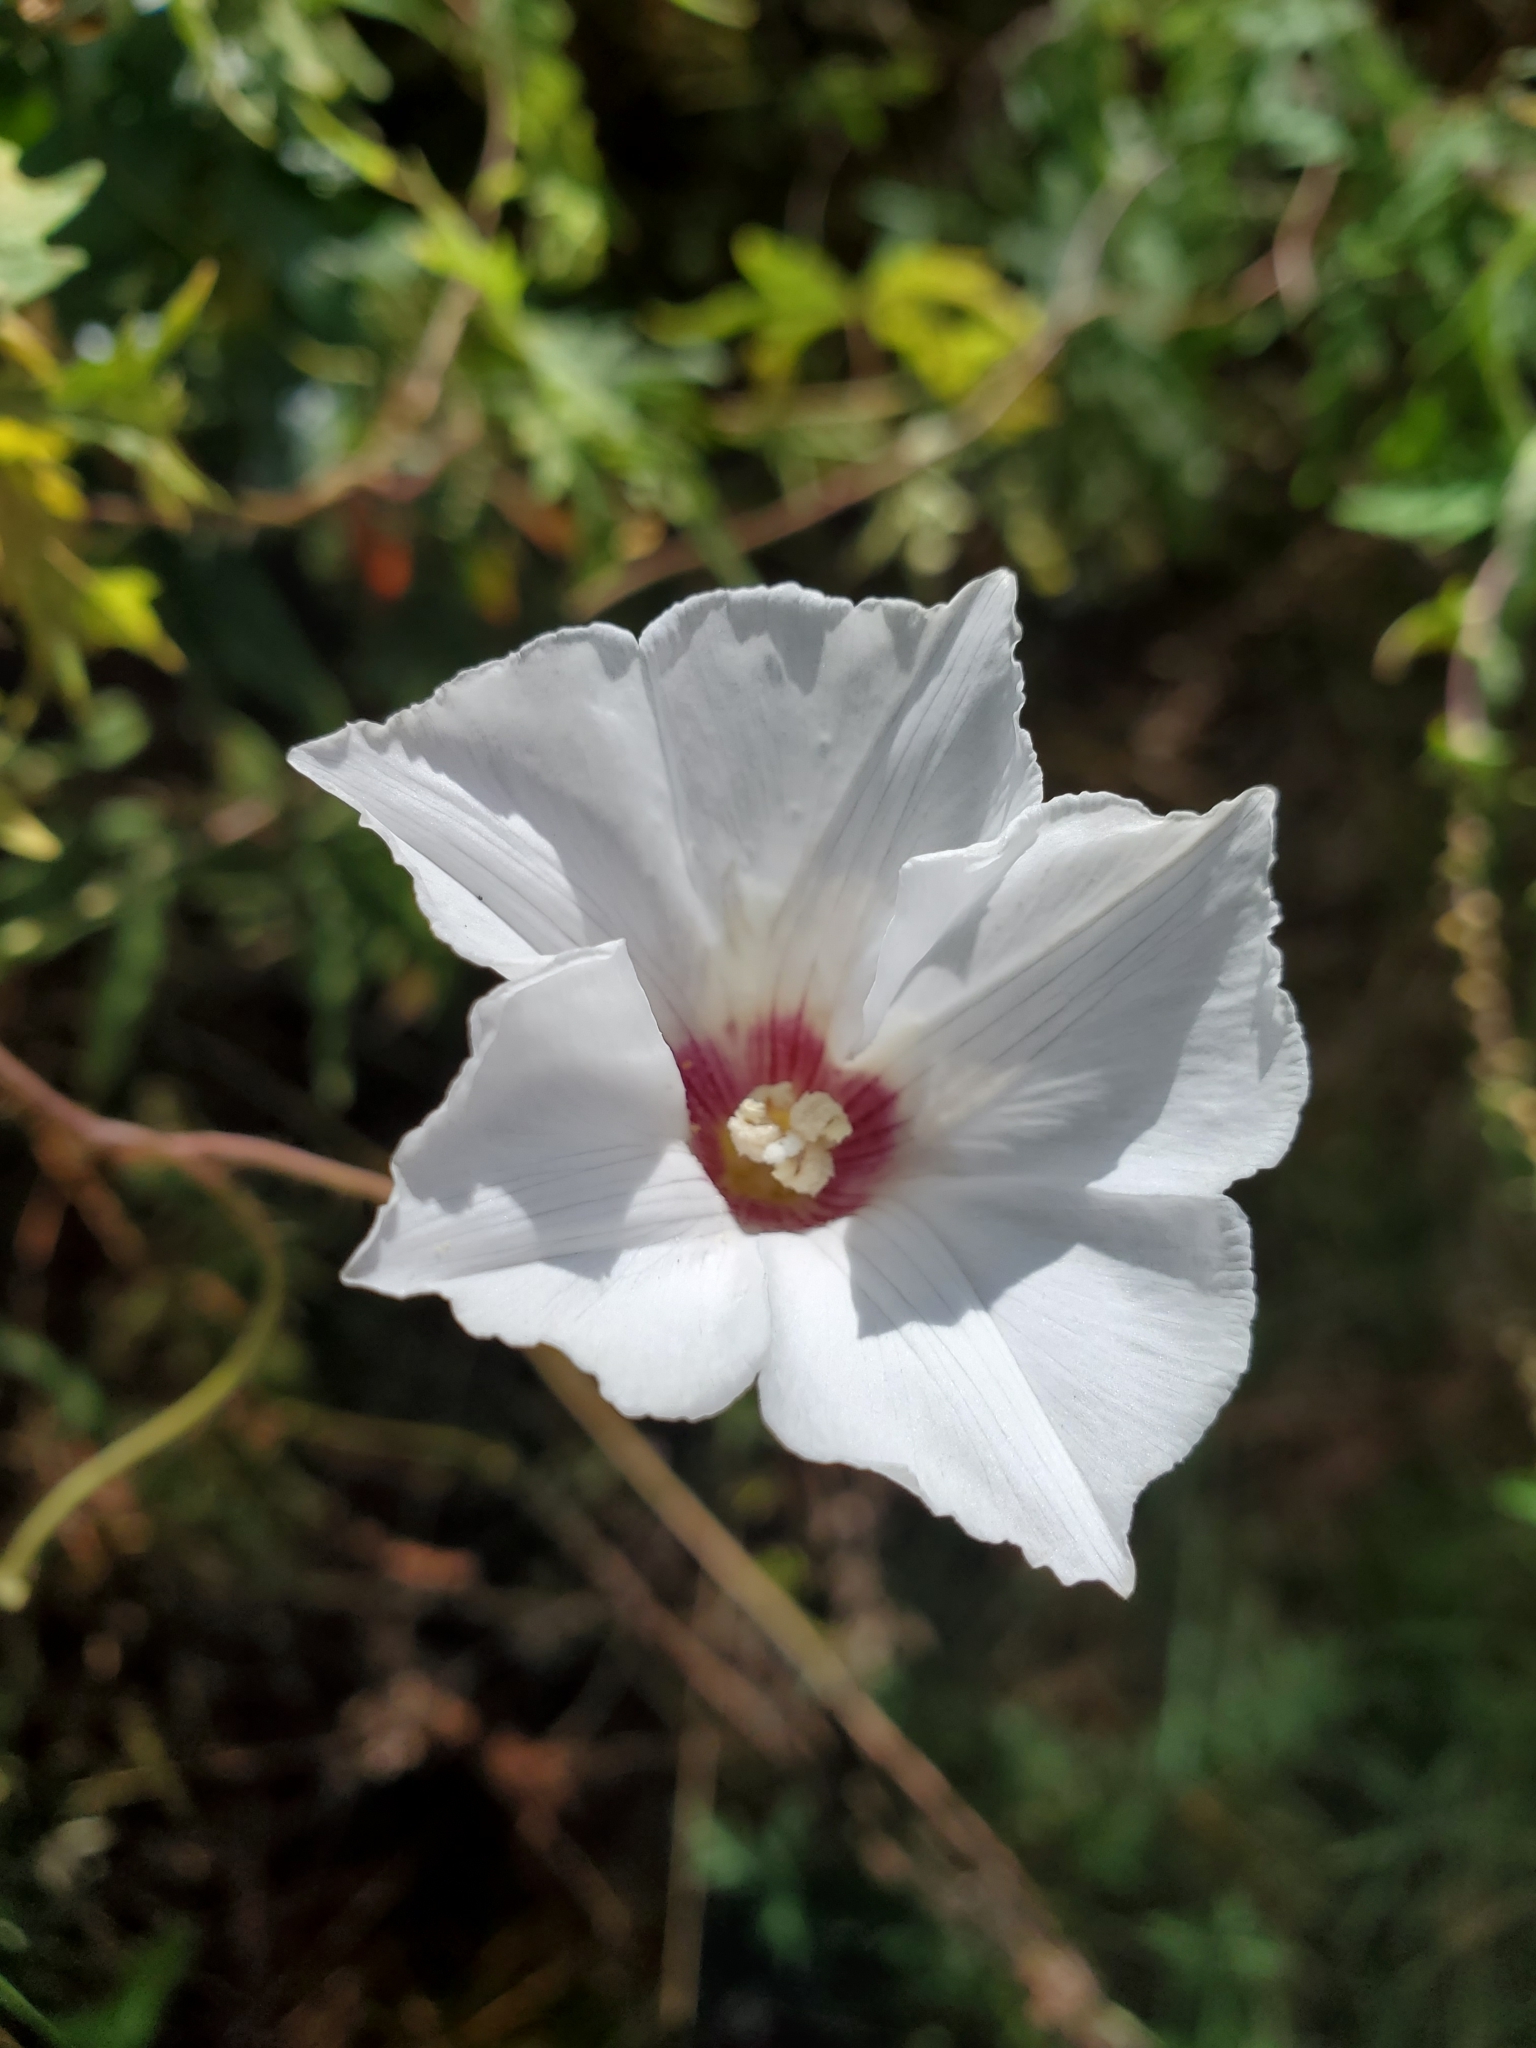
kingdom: Plantae
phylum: Tracheophyta
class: Magnoliopsida
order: Solanales
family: Convolvulaceae
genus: Distimake
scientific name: Distimake dissectus
